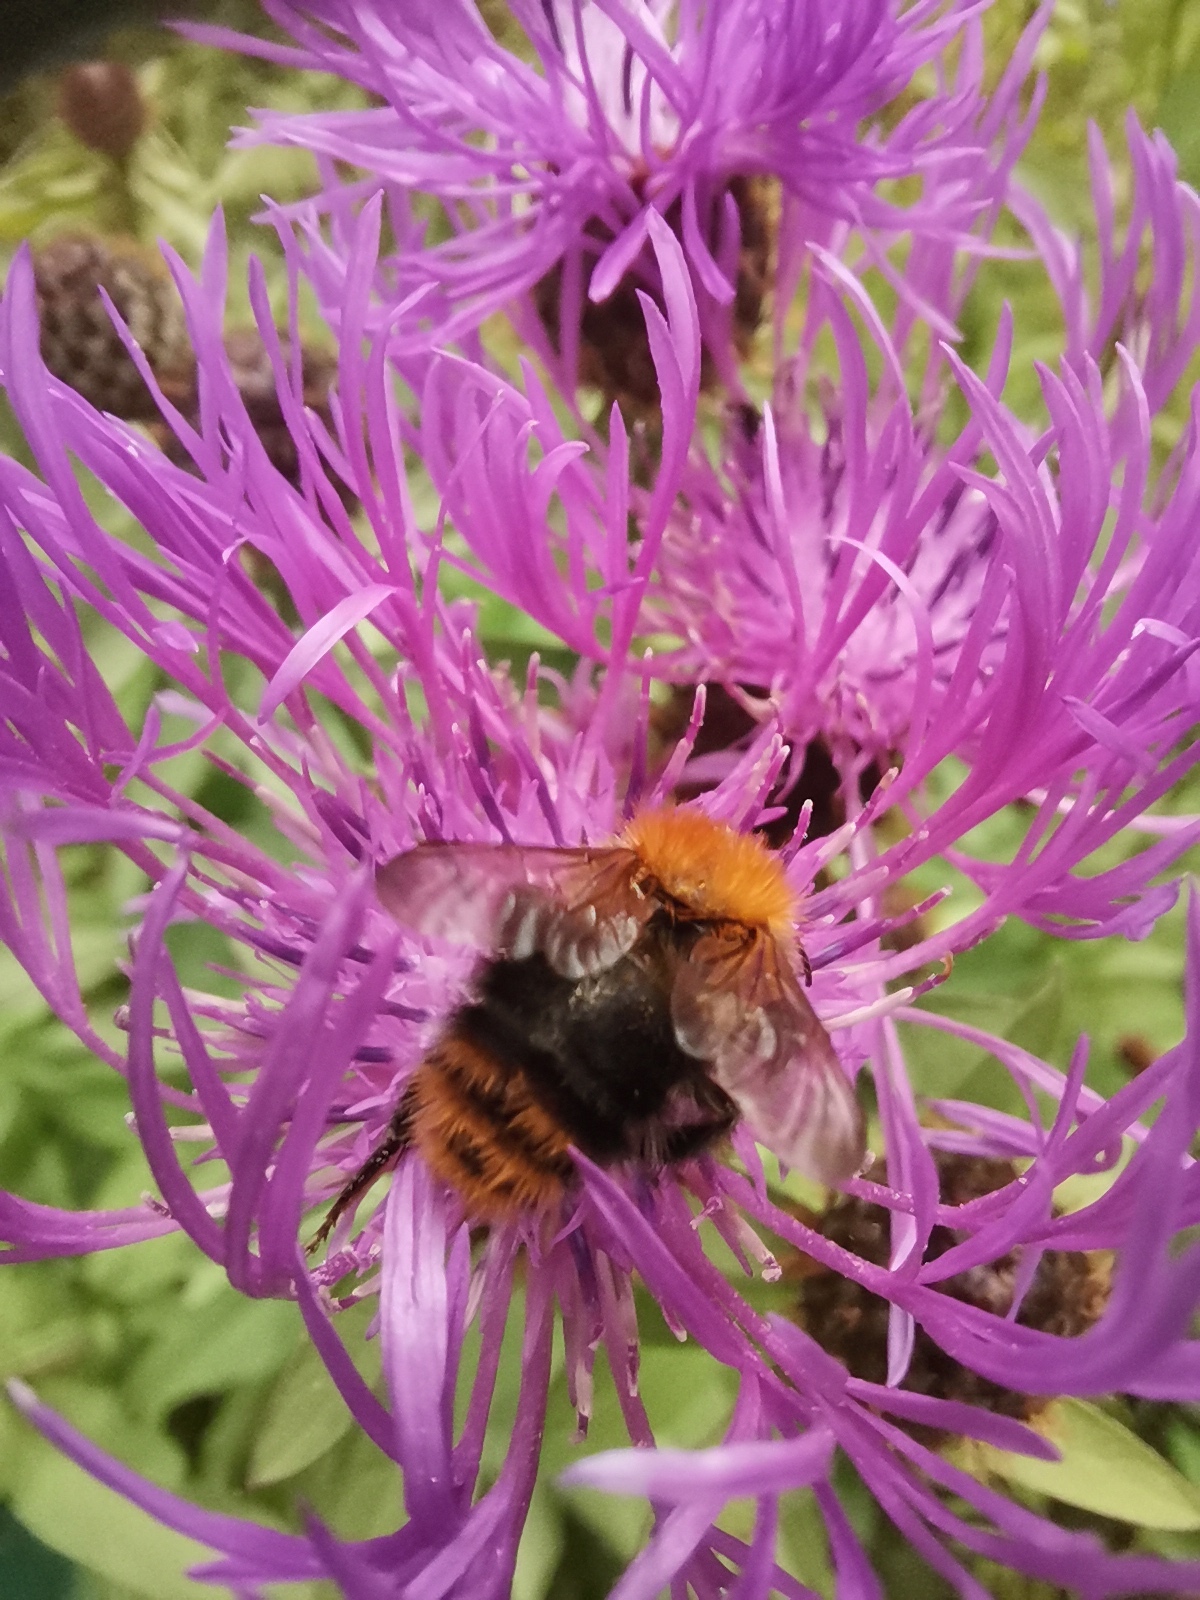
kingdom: Animalia
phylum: Arthropoda
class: Insecta
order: Hymenoptera
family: Apidae
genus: Bombus
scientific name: Bombus pascuorum
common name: Common carder bee
